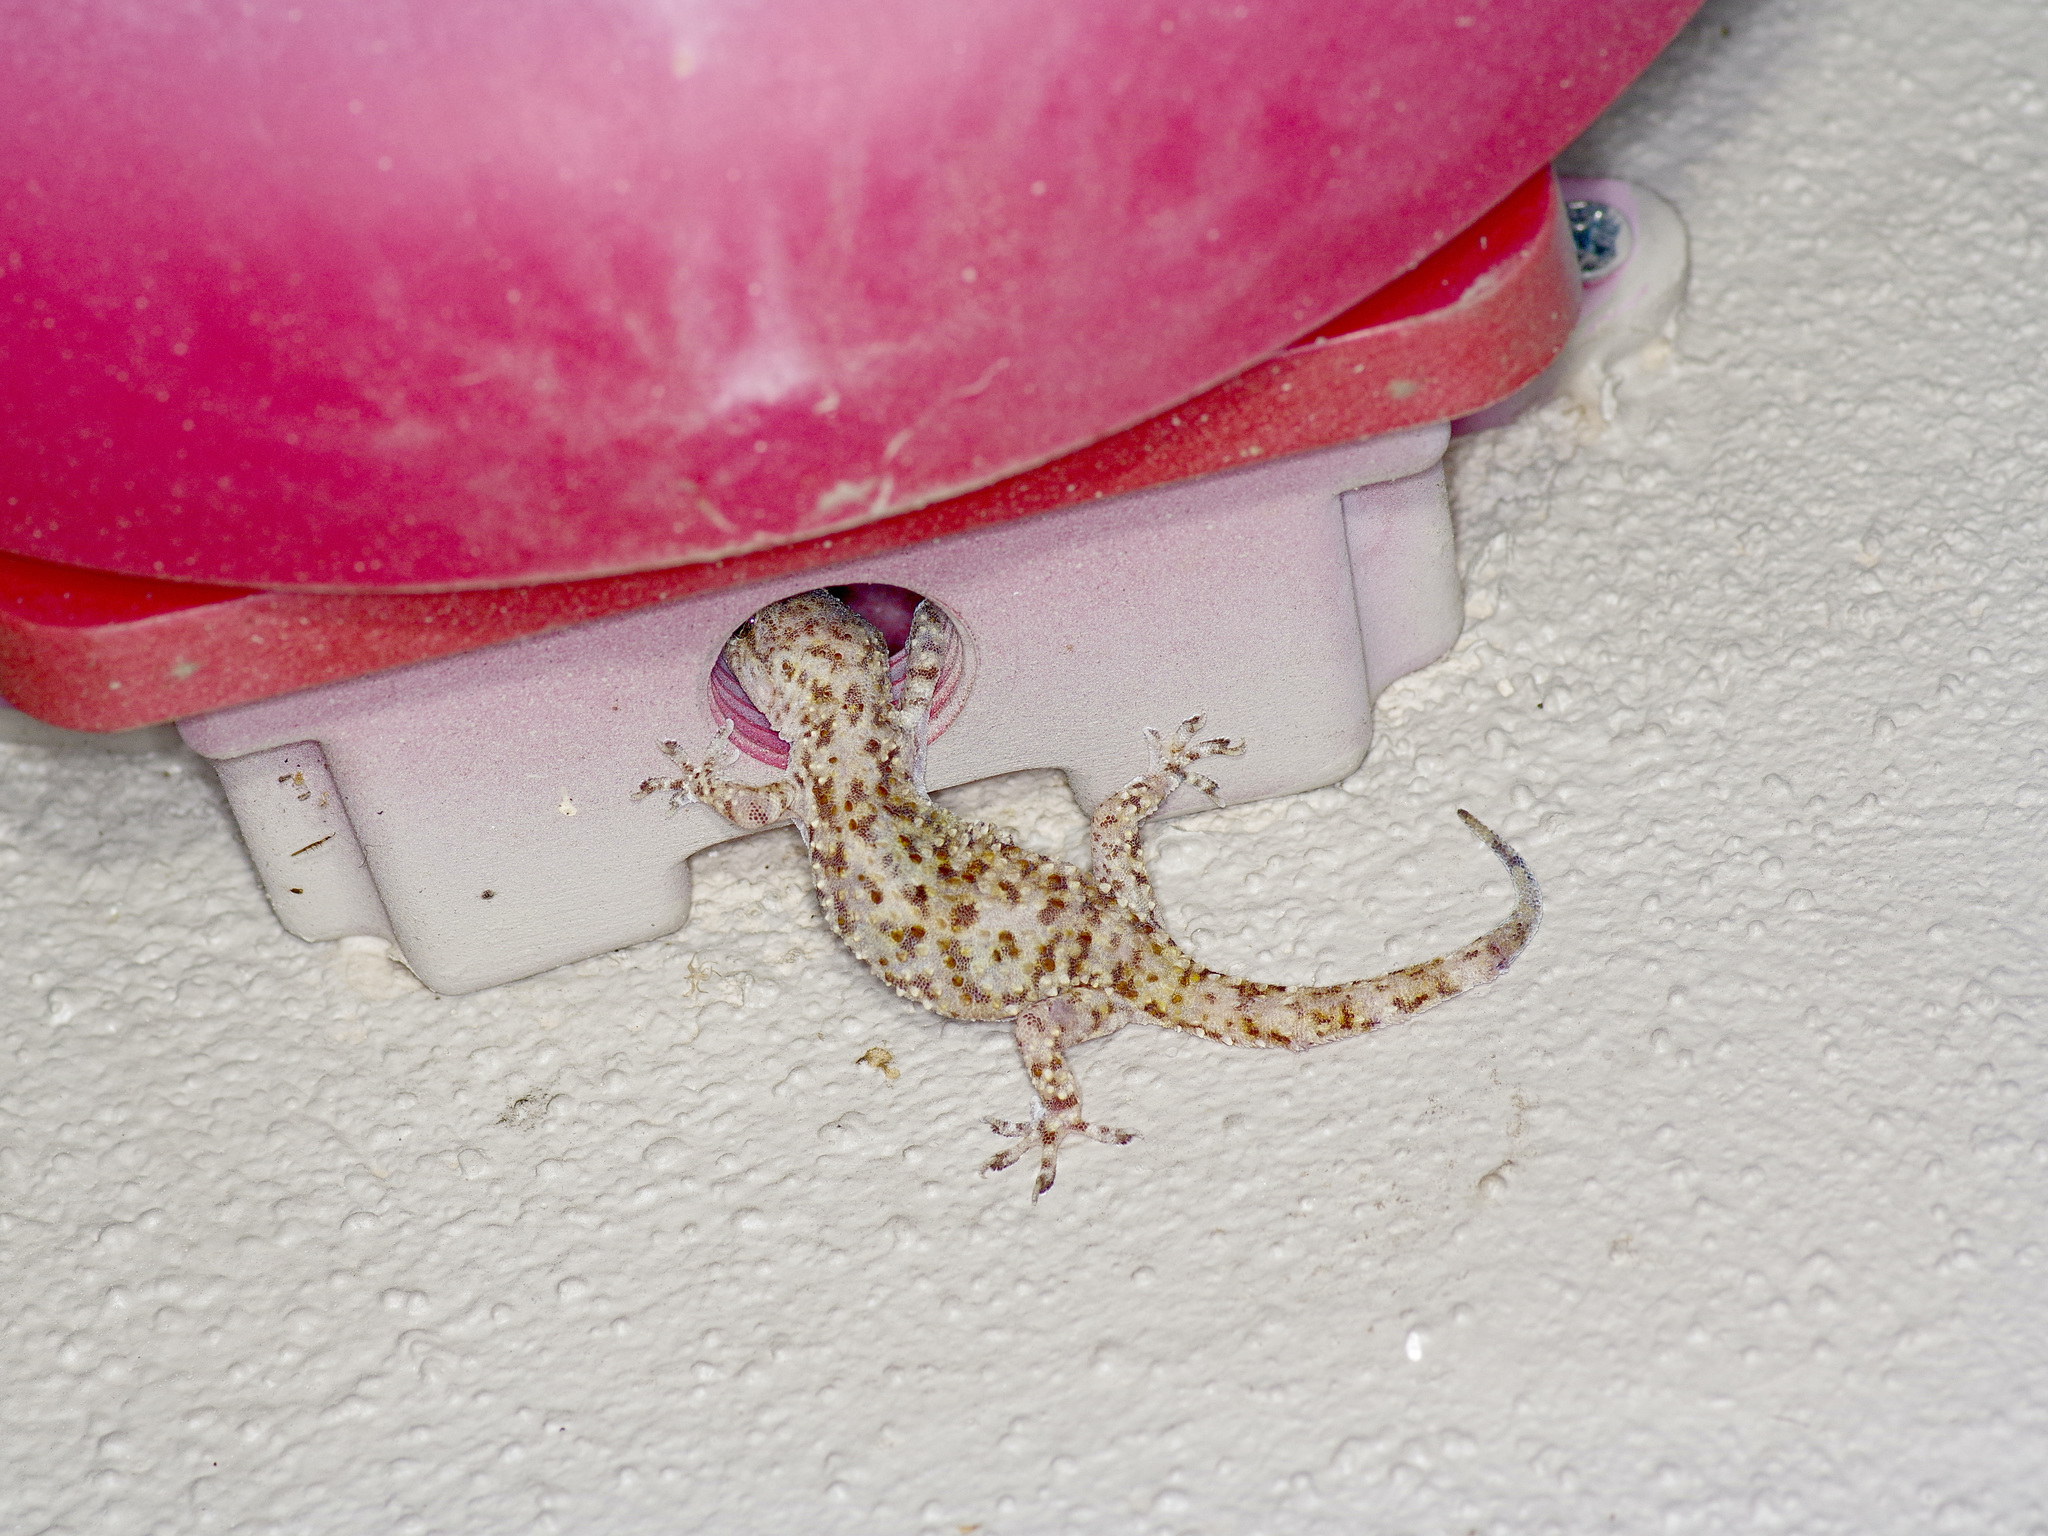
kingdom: Animalia
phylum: Chordata
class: Squamata
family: Gekkonidae
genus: Hemidactylus
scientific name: Hemidactylus turcicus
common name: Turkish gecko
